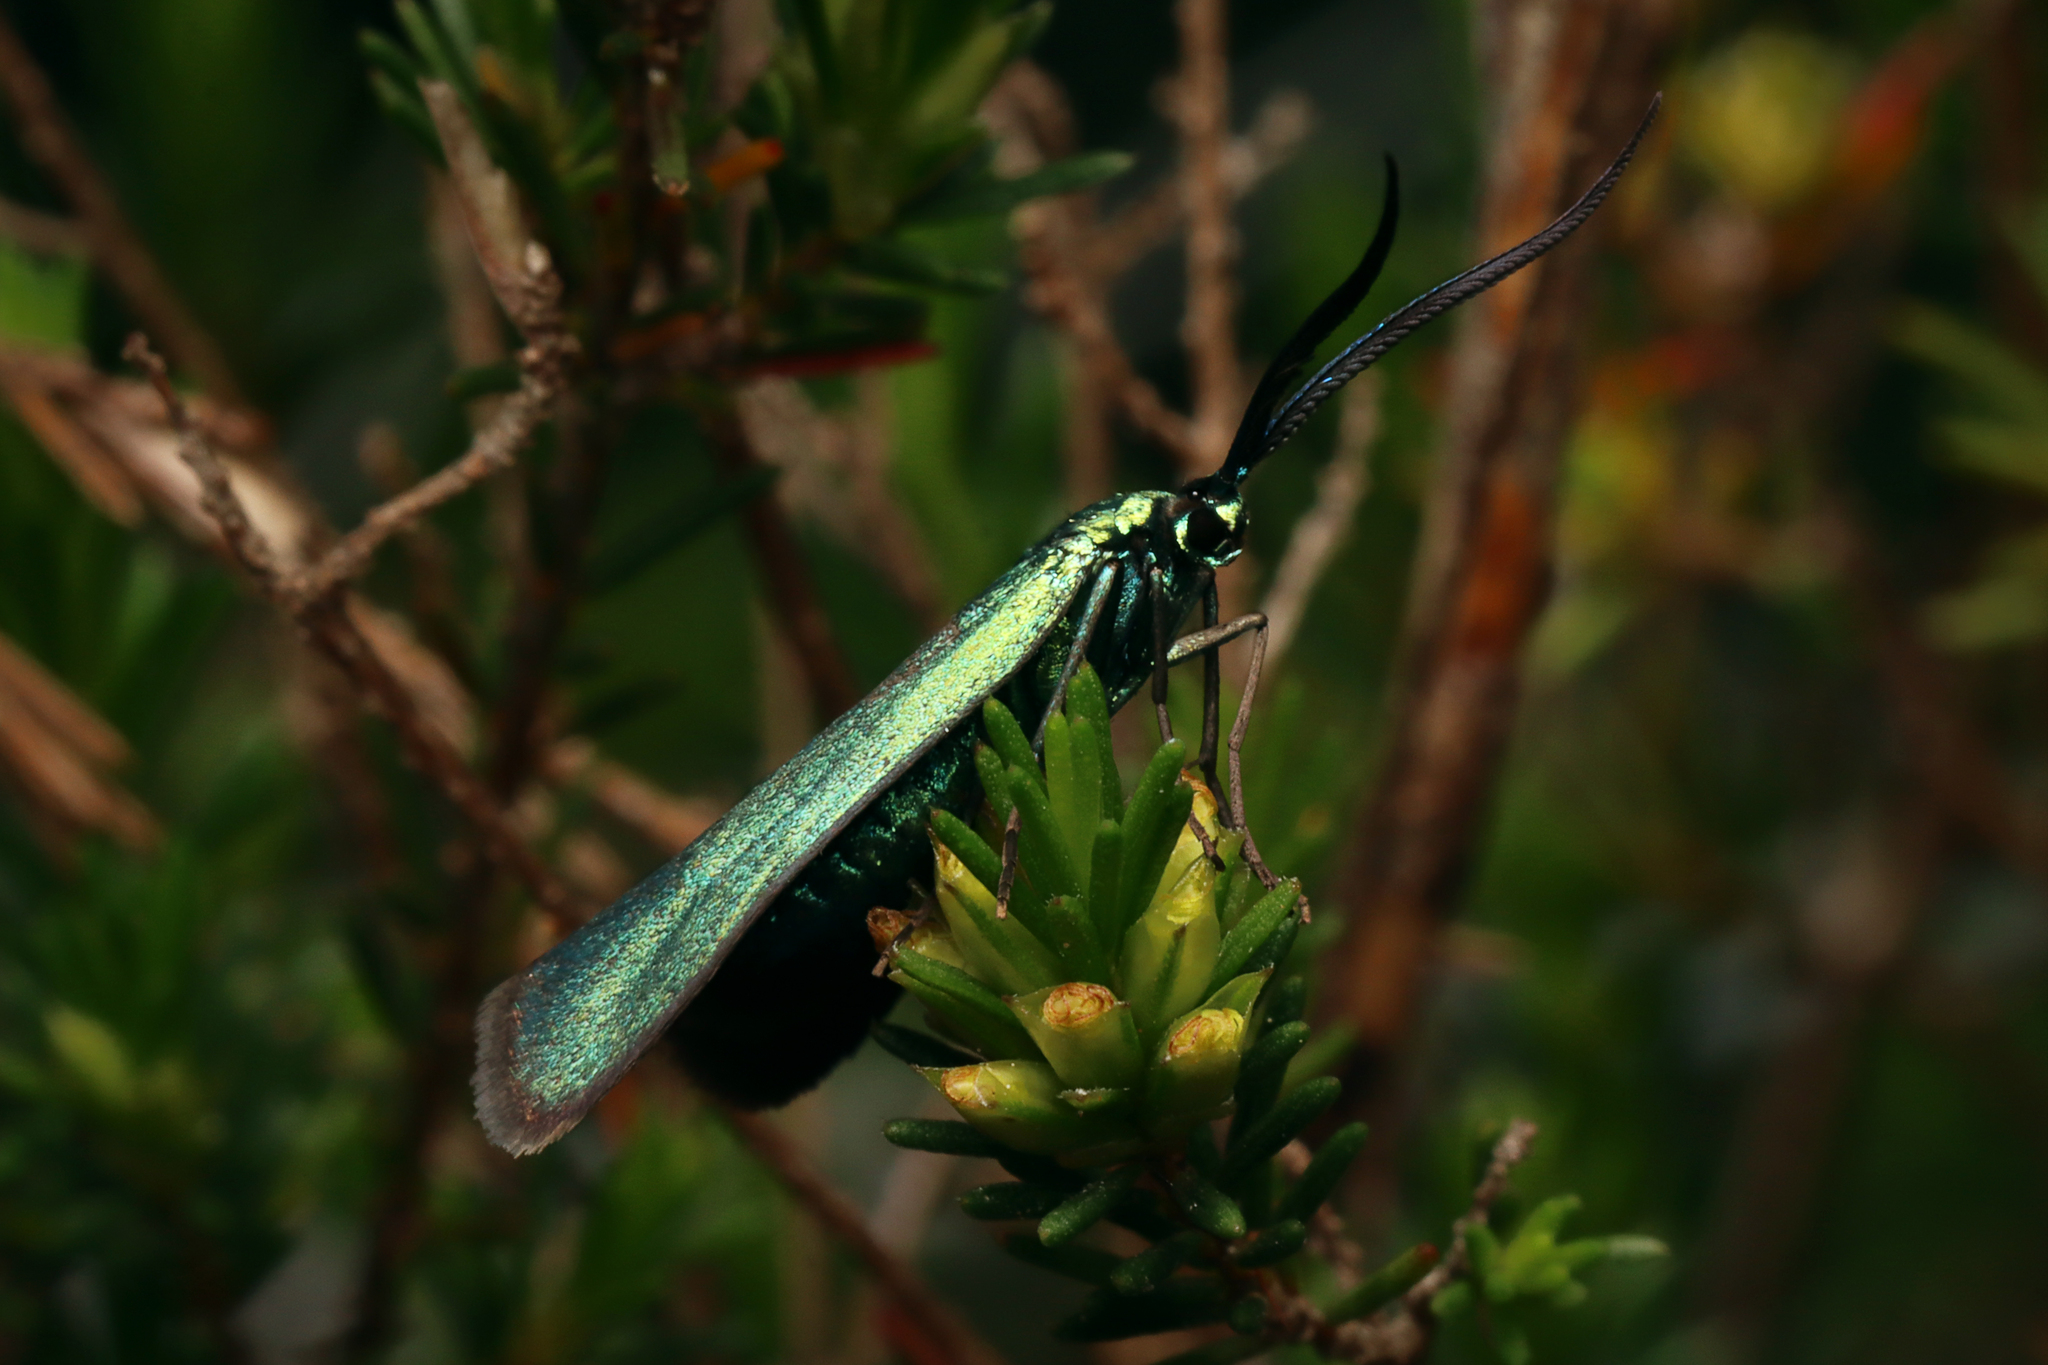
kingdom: Animalia
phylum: Arthropoda
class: Insecta
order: Lepidoptera
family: Zygaenidae
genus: Pollanisus
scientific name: Pollanisus viridipulverulenta
